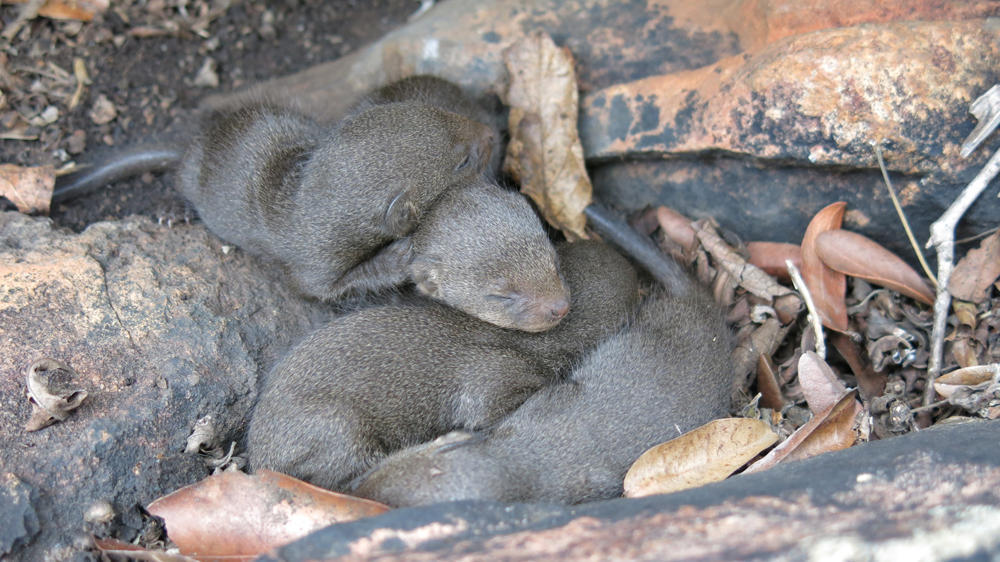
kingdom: Animalia
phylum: Chordata
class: Mammalia
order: Carnivora
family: Herpestidae
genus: Helogale
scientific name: Helogale parvula
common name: Common dwarf mongoose
